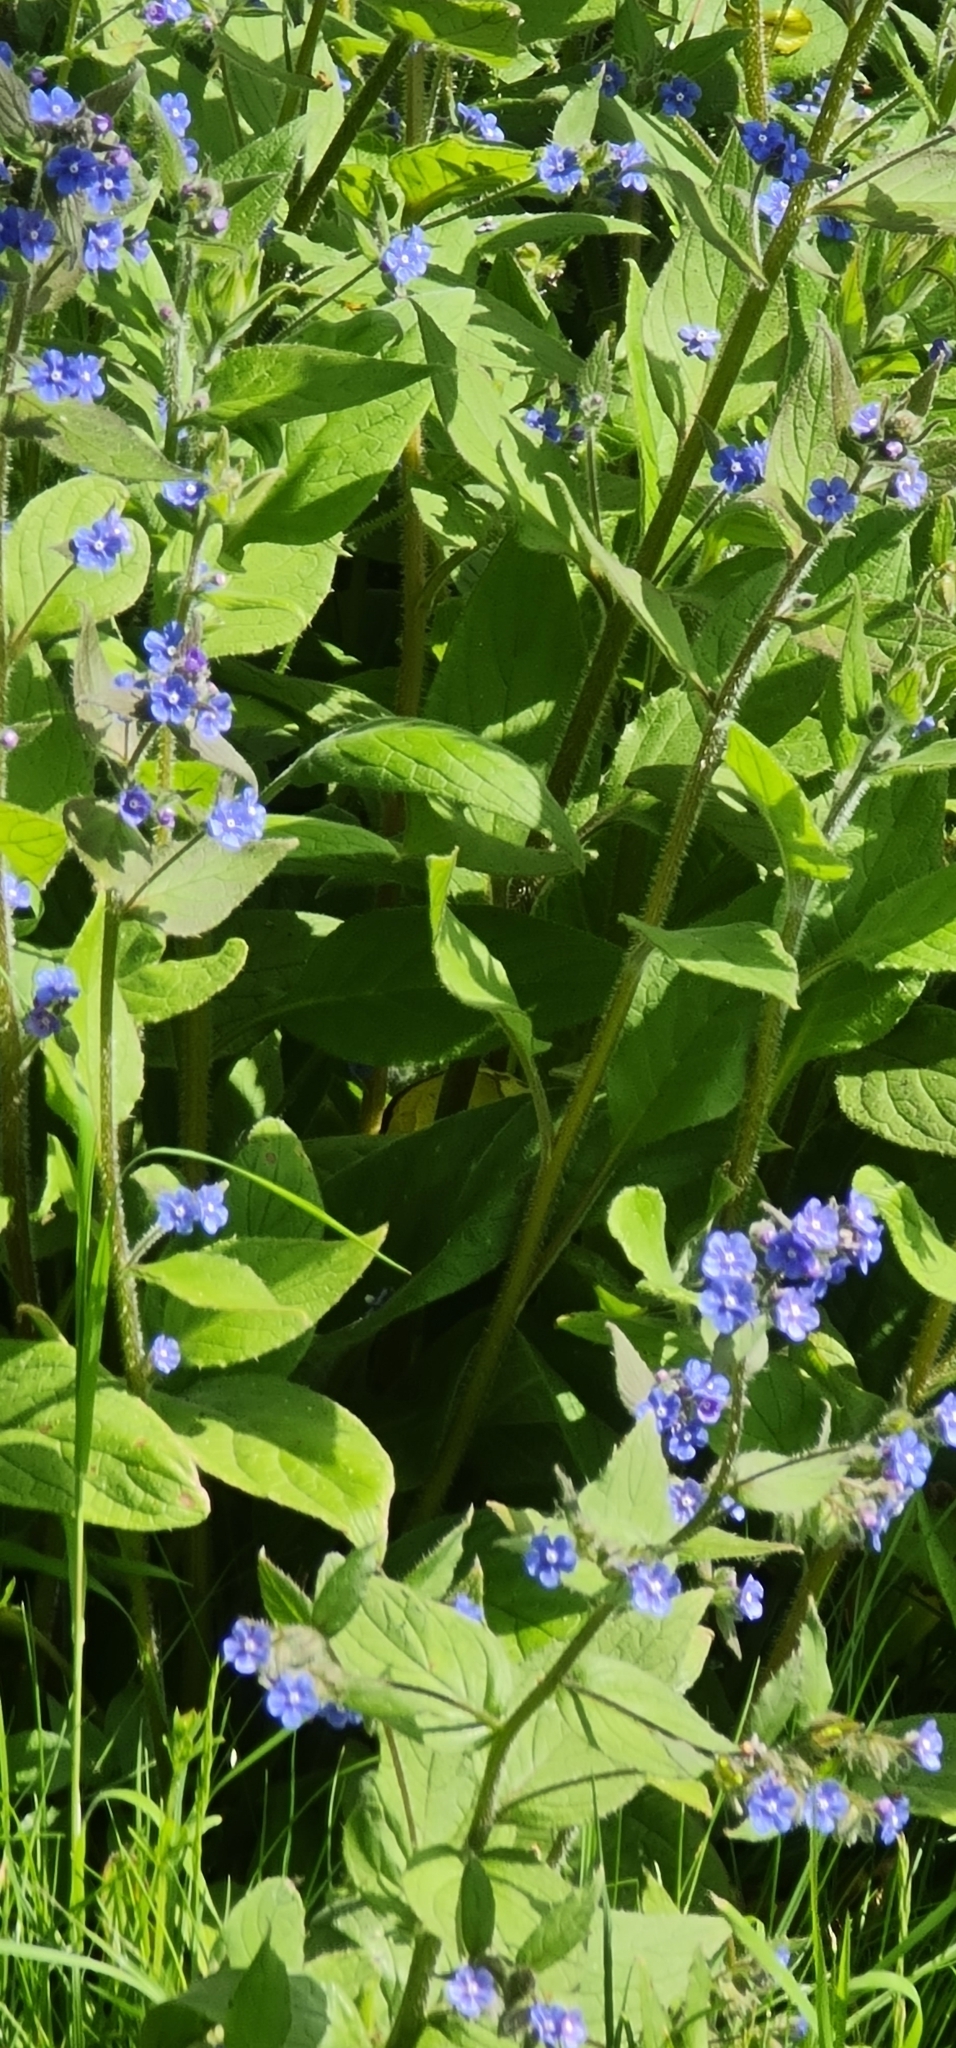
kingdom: Plantae
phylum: Tracheophyta
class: Magnoliopsida
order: Boraginales
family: Boraginaceae
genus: Pentaglottis
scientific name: Pentaglottis sempervirens
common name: Green alkanet
